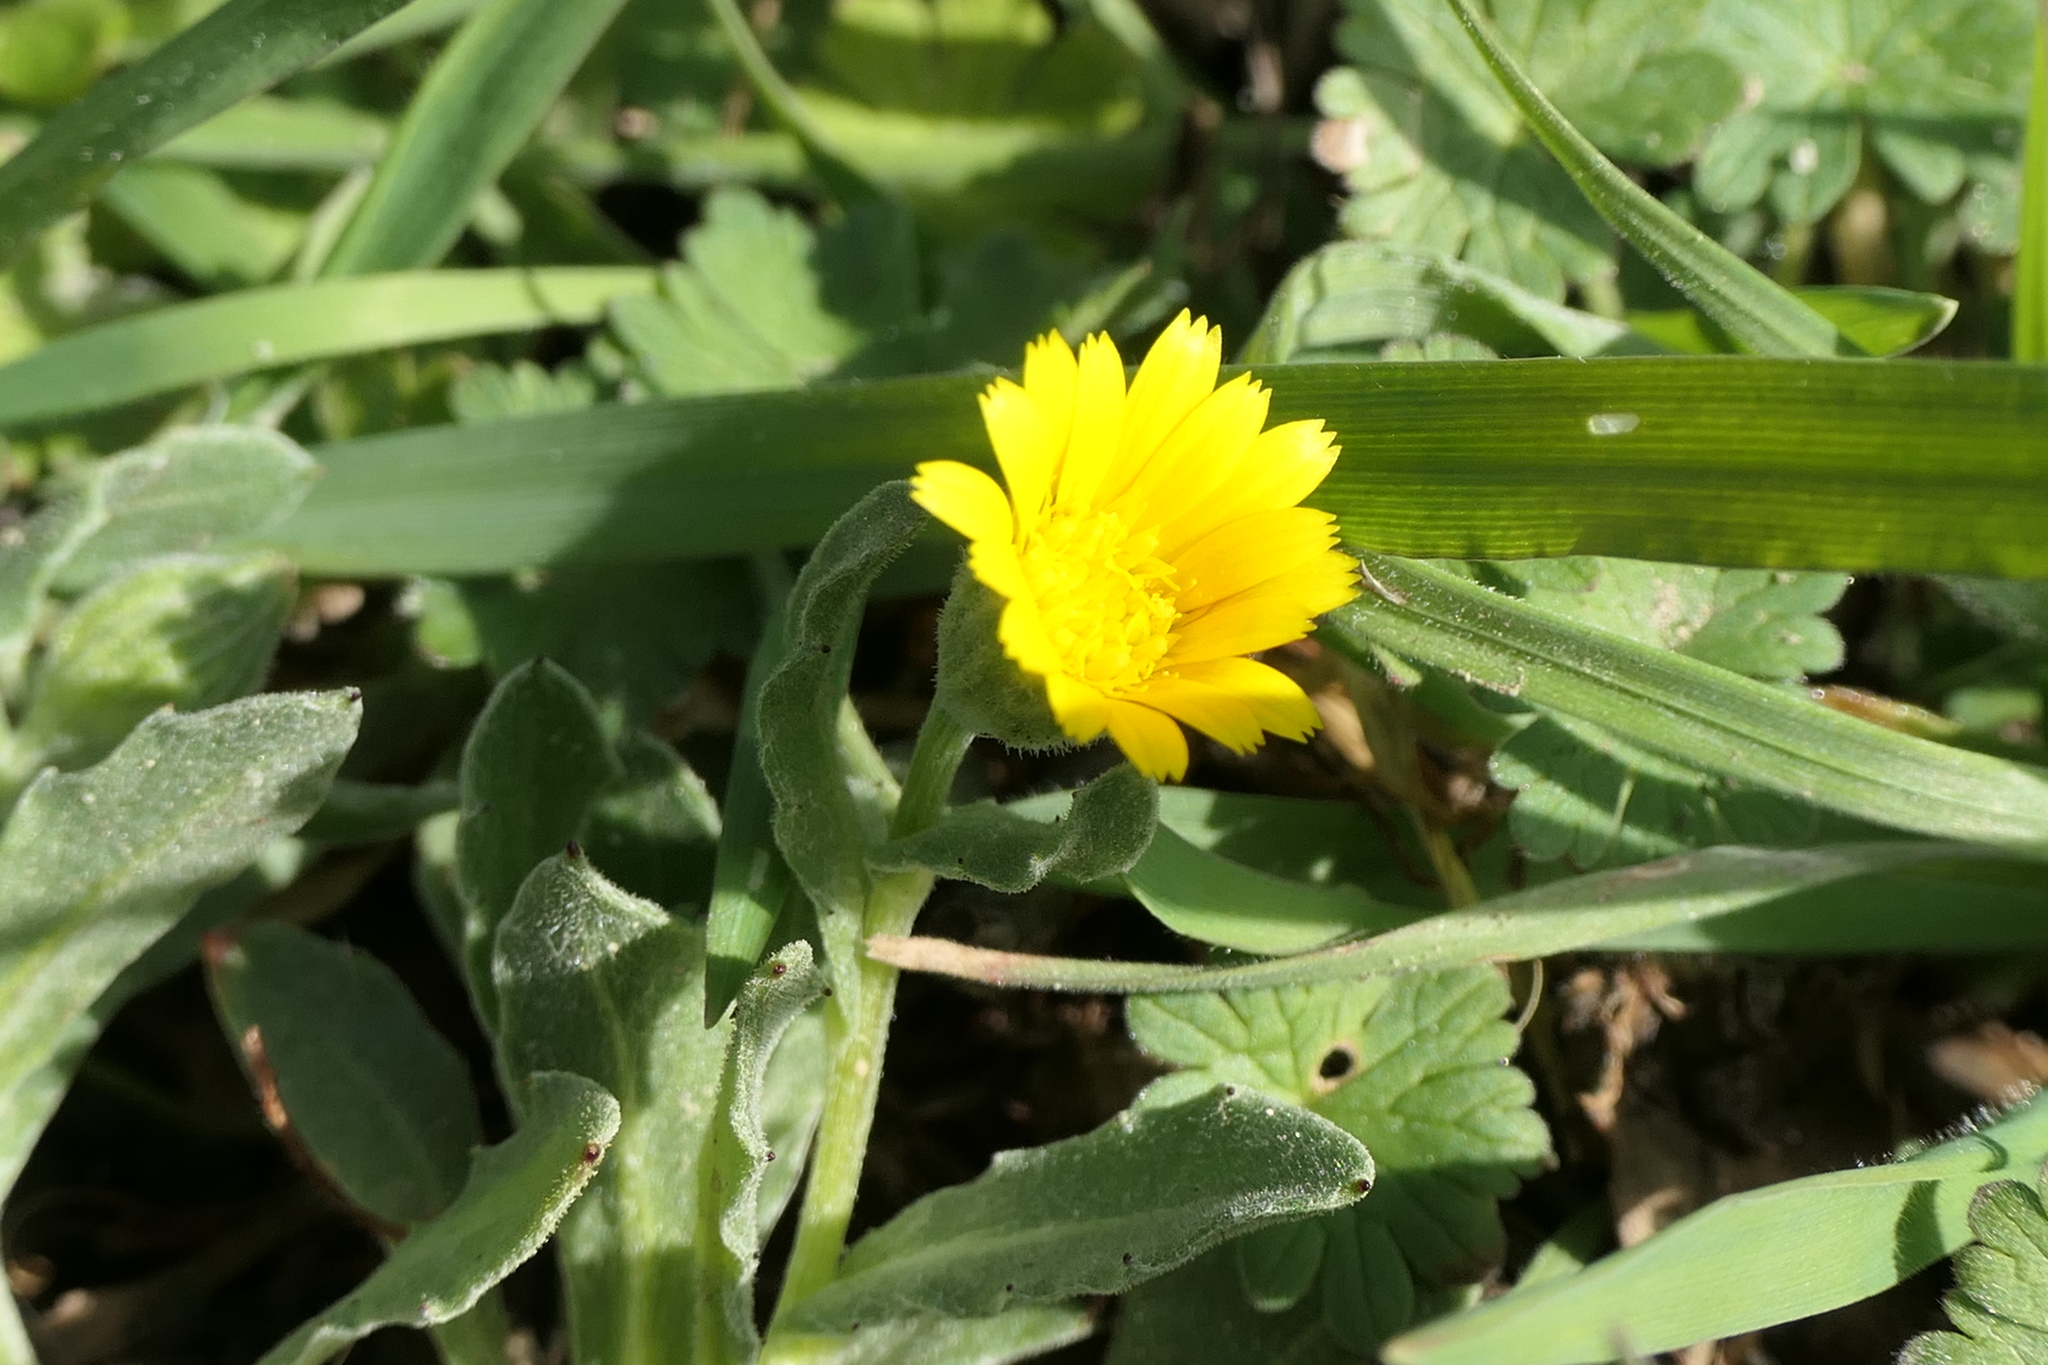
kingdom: Plantae
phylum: Tracheophyta
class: Magnoliopsida
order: Asterales
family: Asteraceae
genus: Calendula
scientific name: Calendula arvensis
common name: Field marigold
